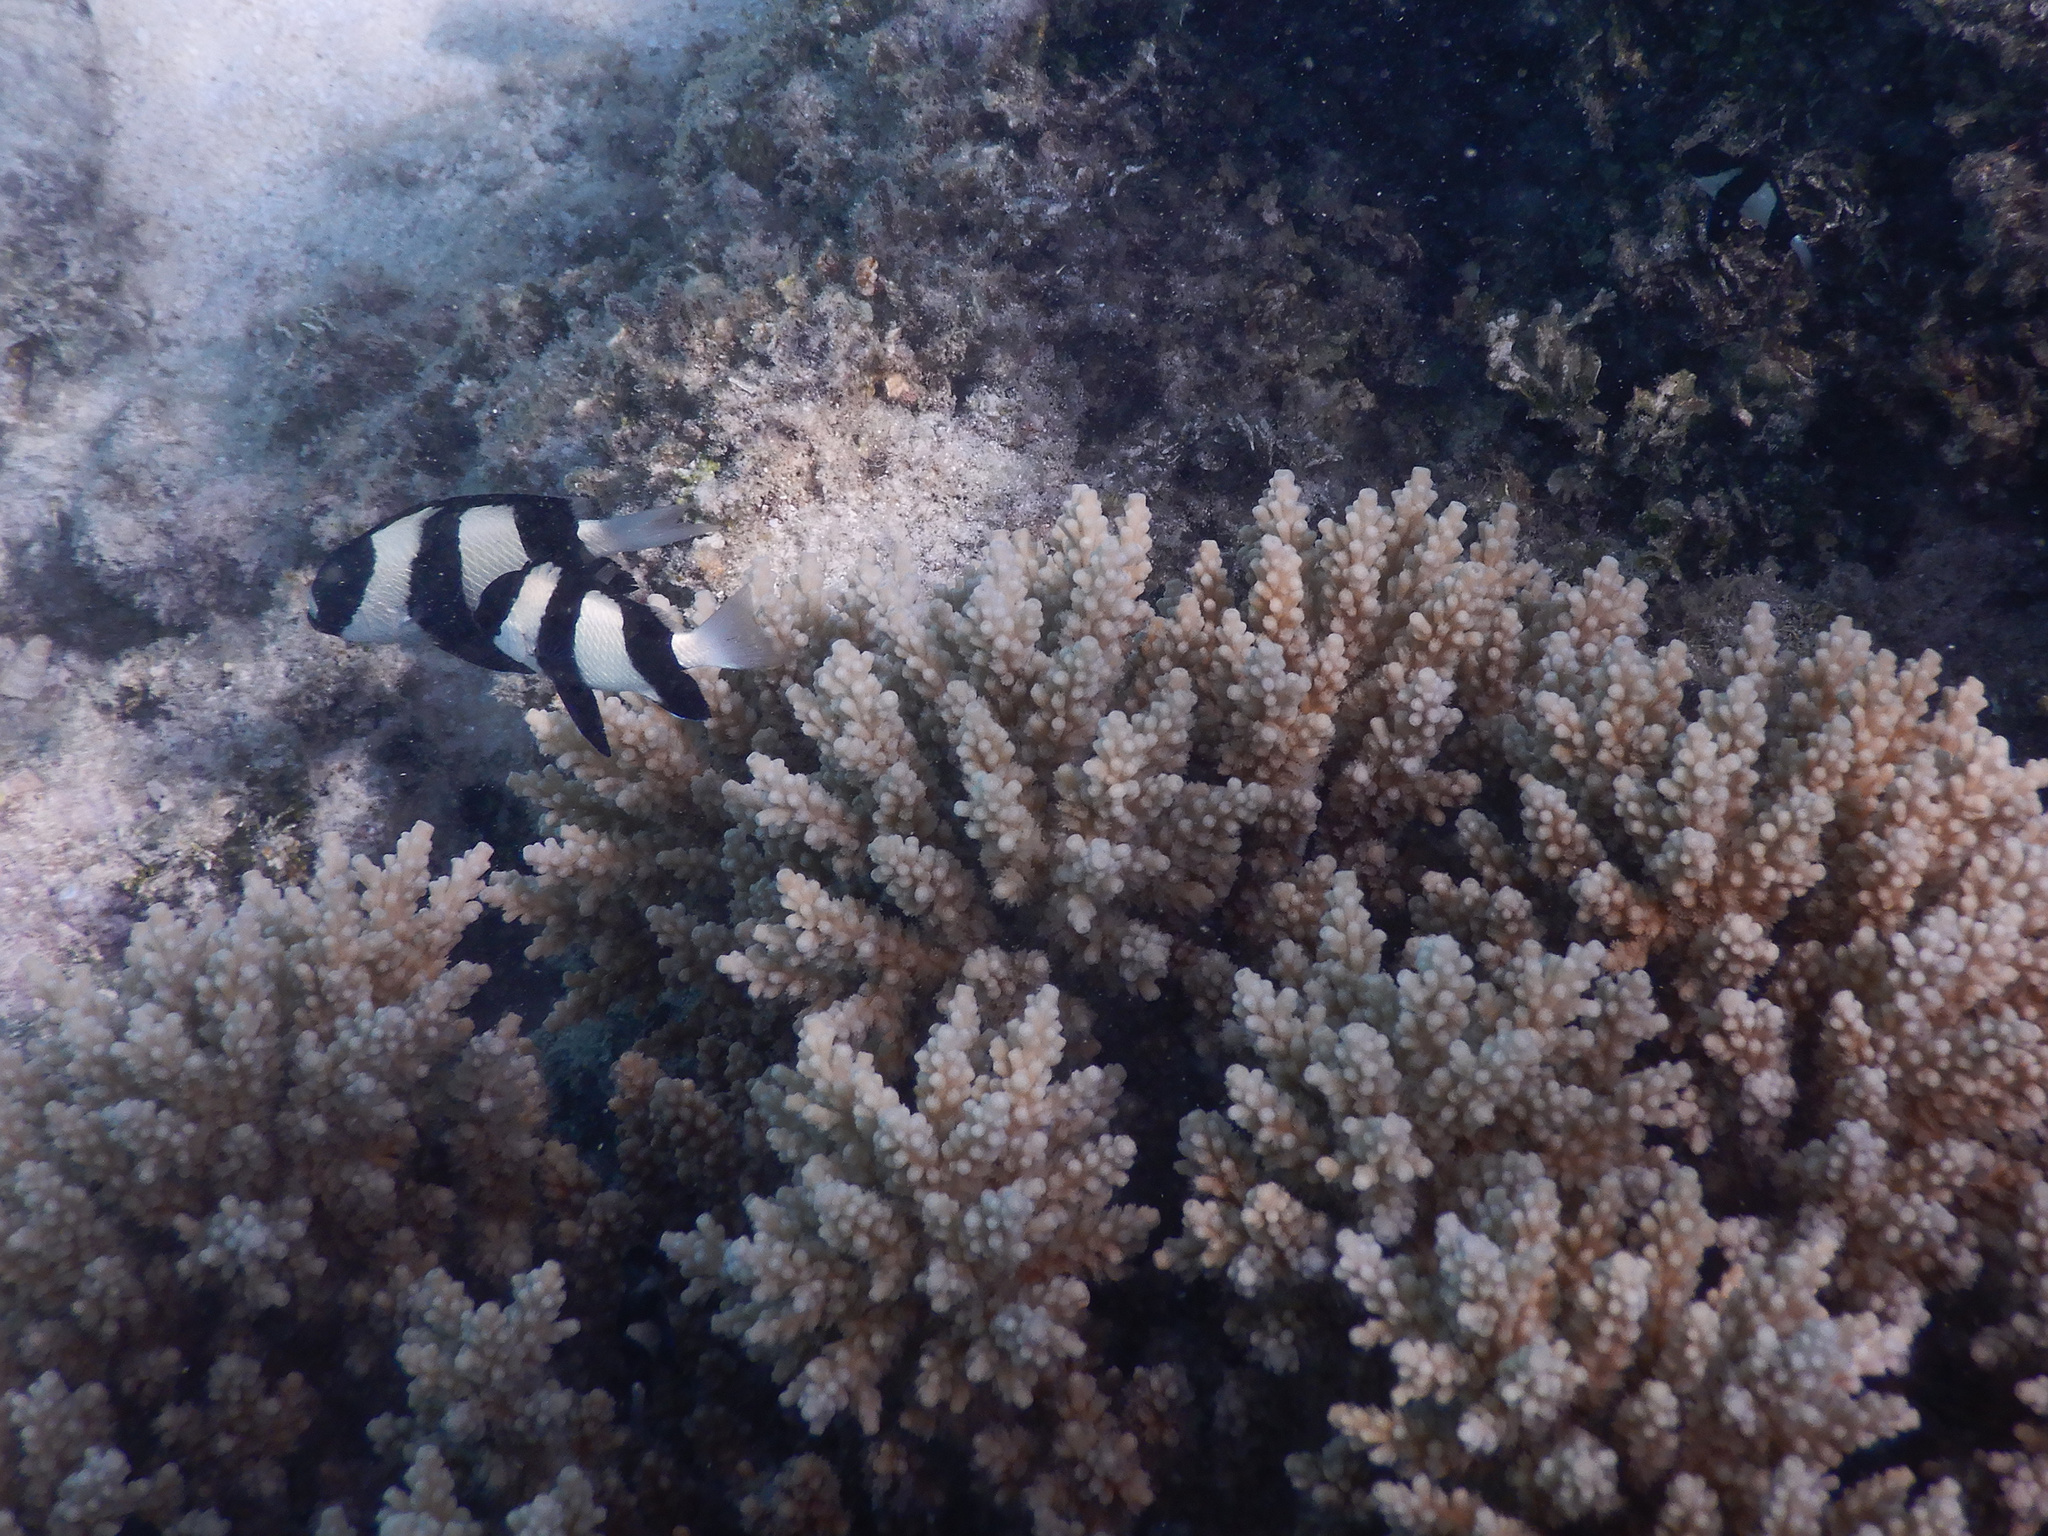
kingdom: Animalia
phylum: Chordata
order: Perciformes
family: Pomacentridae
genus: Dascyllus
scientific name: Dascyllus aruanus
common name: Humbug dascyllus
